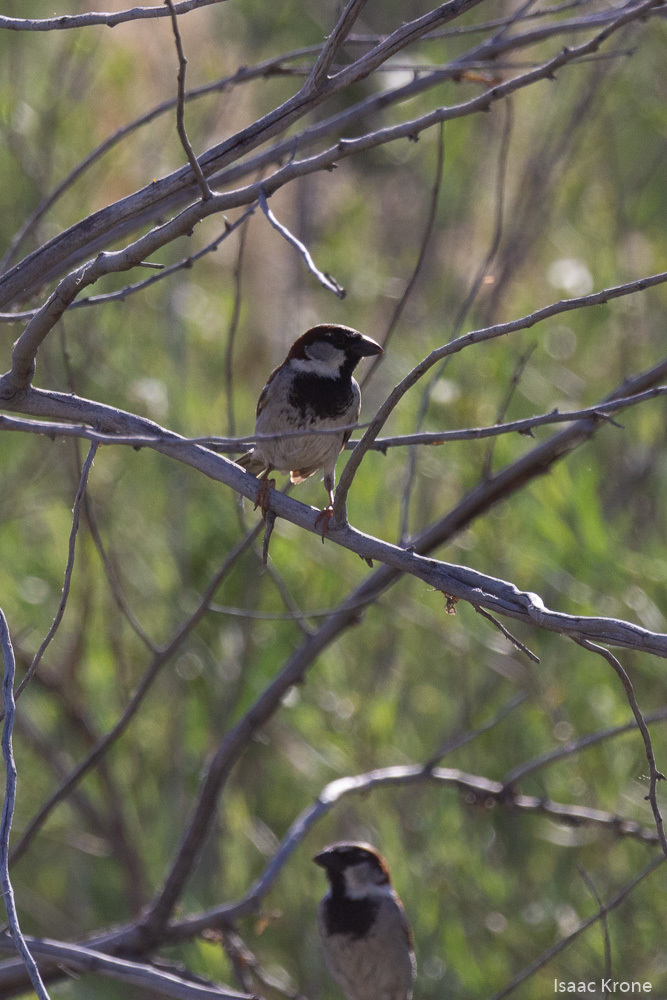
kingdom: Animalia
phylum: Chordata
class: Aves
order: Passeriformes
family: Passeridae
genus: Passer
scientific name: Passer domesticus
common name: House sparrow
